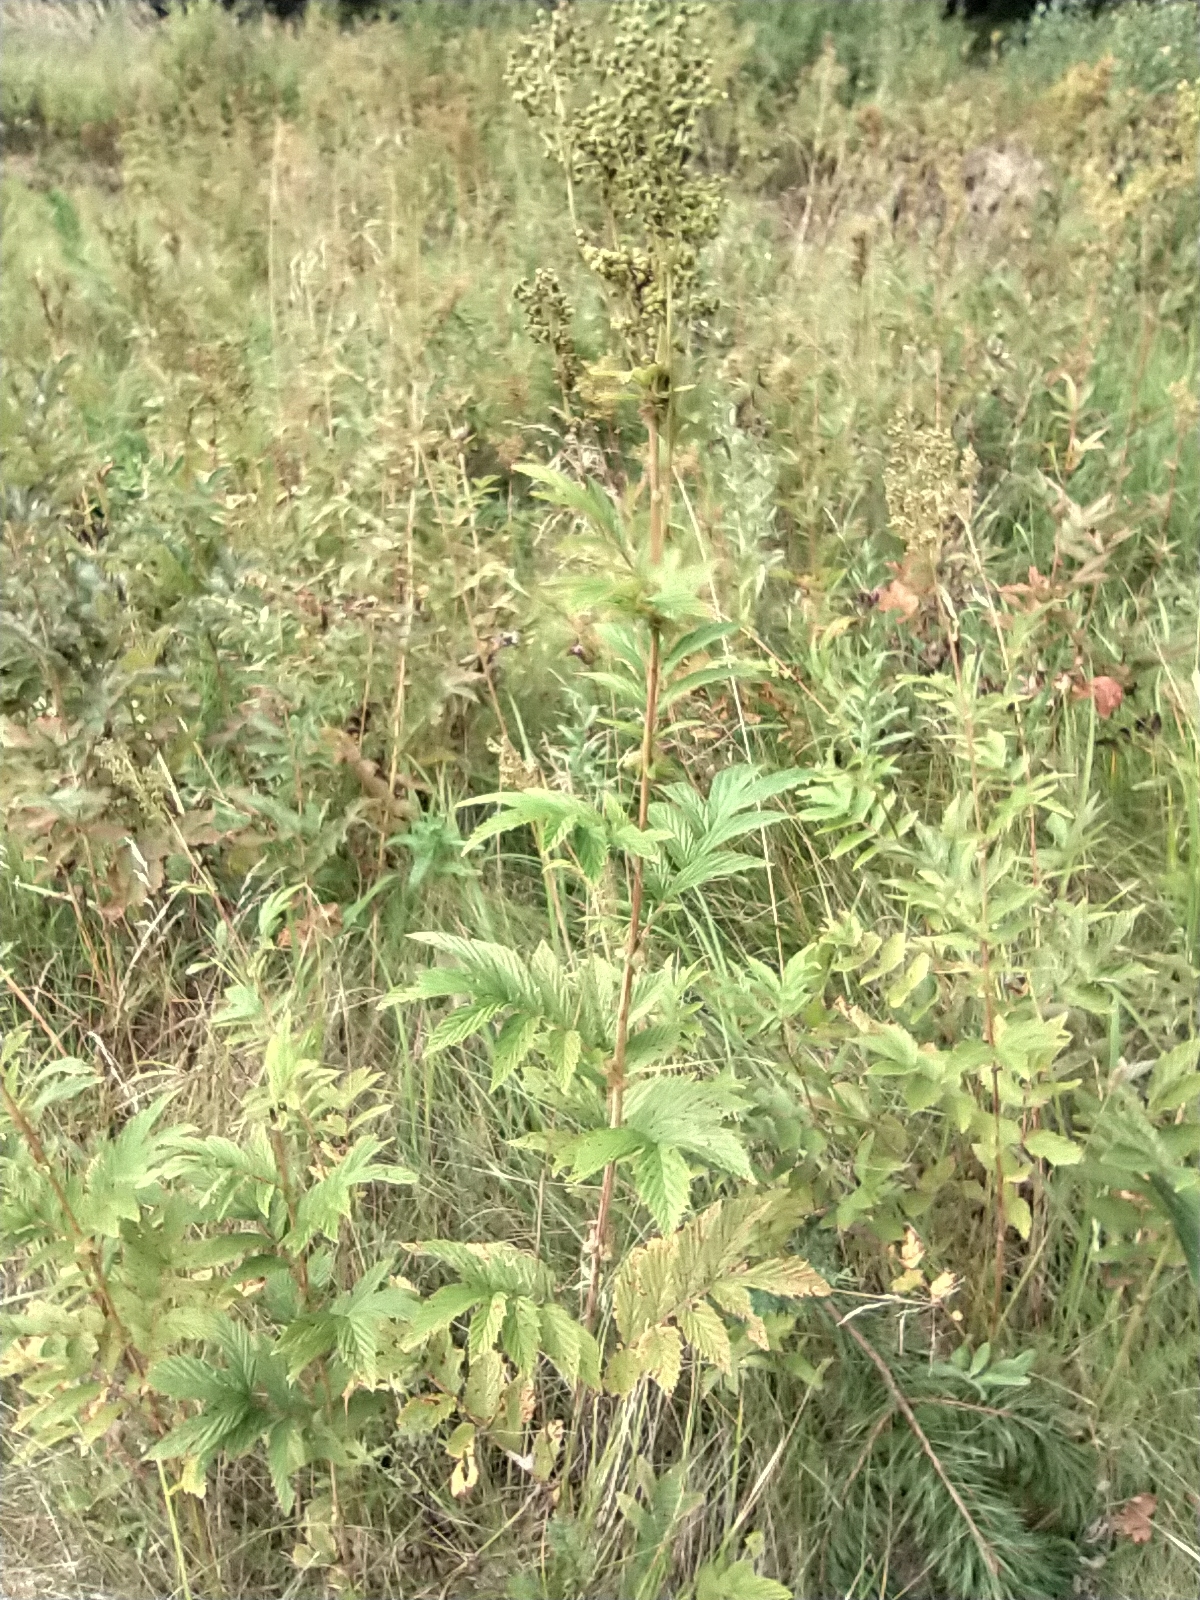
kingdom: Plantae
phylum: Tracheophyta
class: Magnoliopsida
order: Rosales
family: Rosaceae
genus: Filipendula
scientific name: Filipendula ulmaria
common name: Meadowsweet
